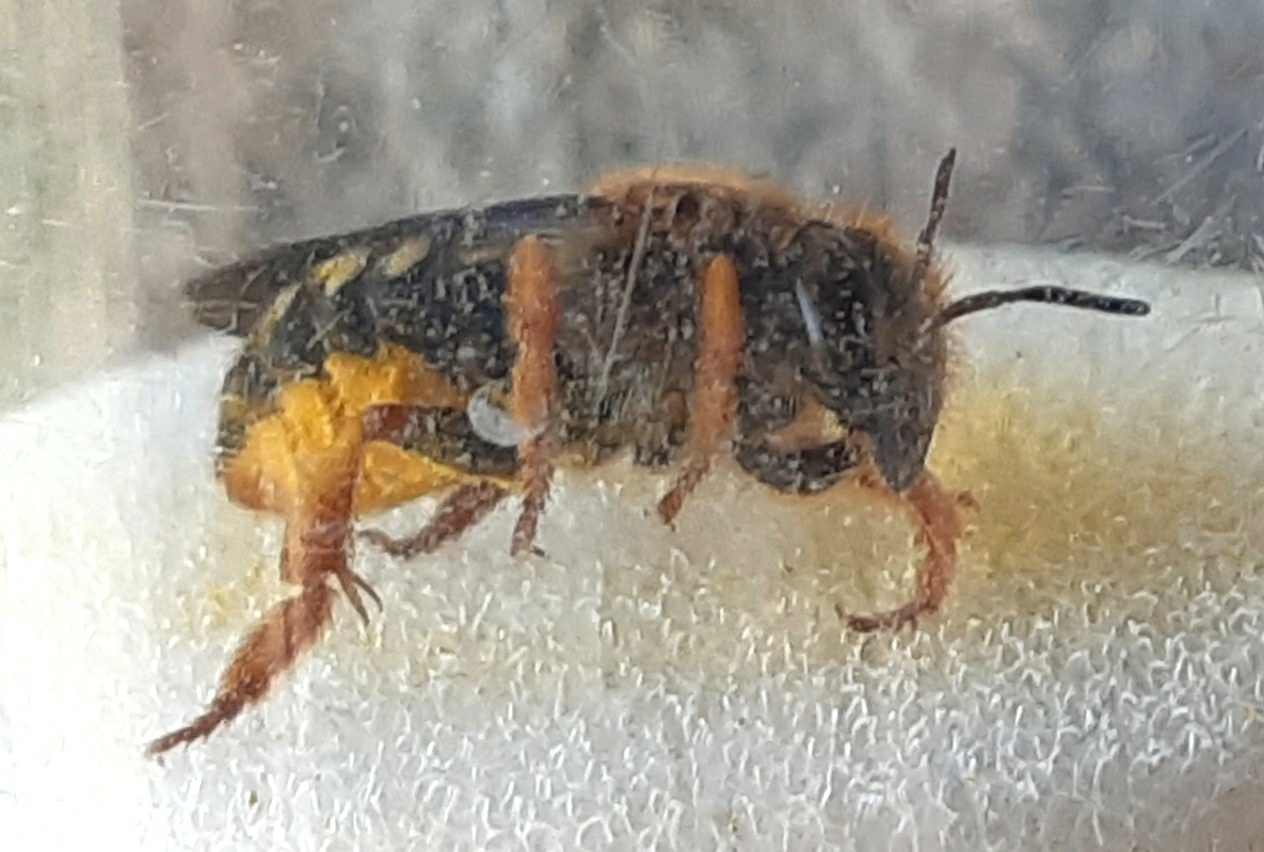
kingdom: Animalia
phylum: Arthropoda
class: Insecta
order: Hymenoptera
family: Megachilidae
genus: Rhodanthidium
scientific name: Rhodanthidium septemdentatum
